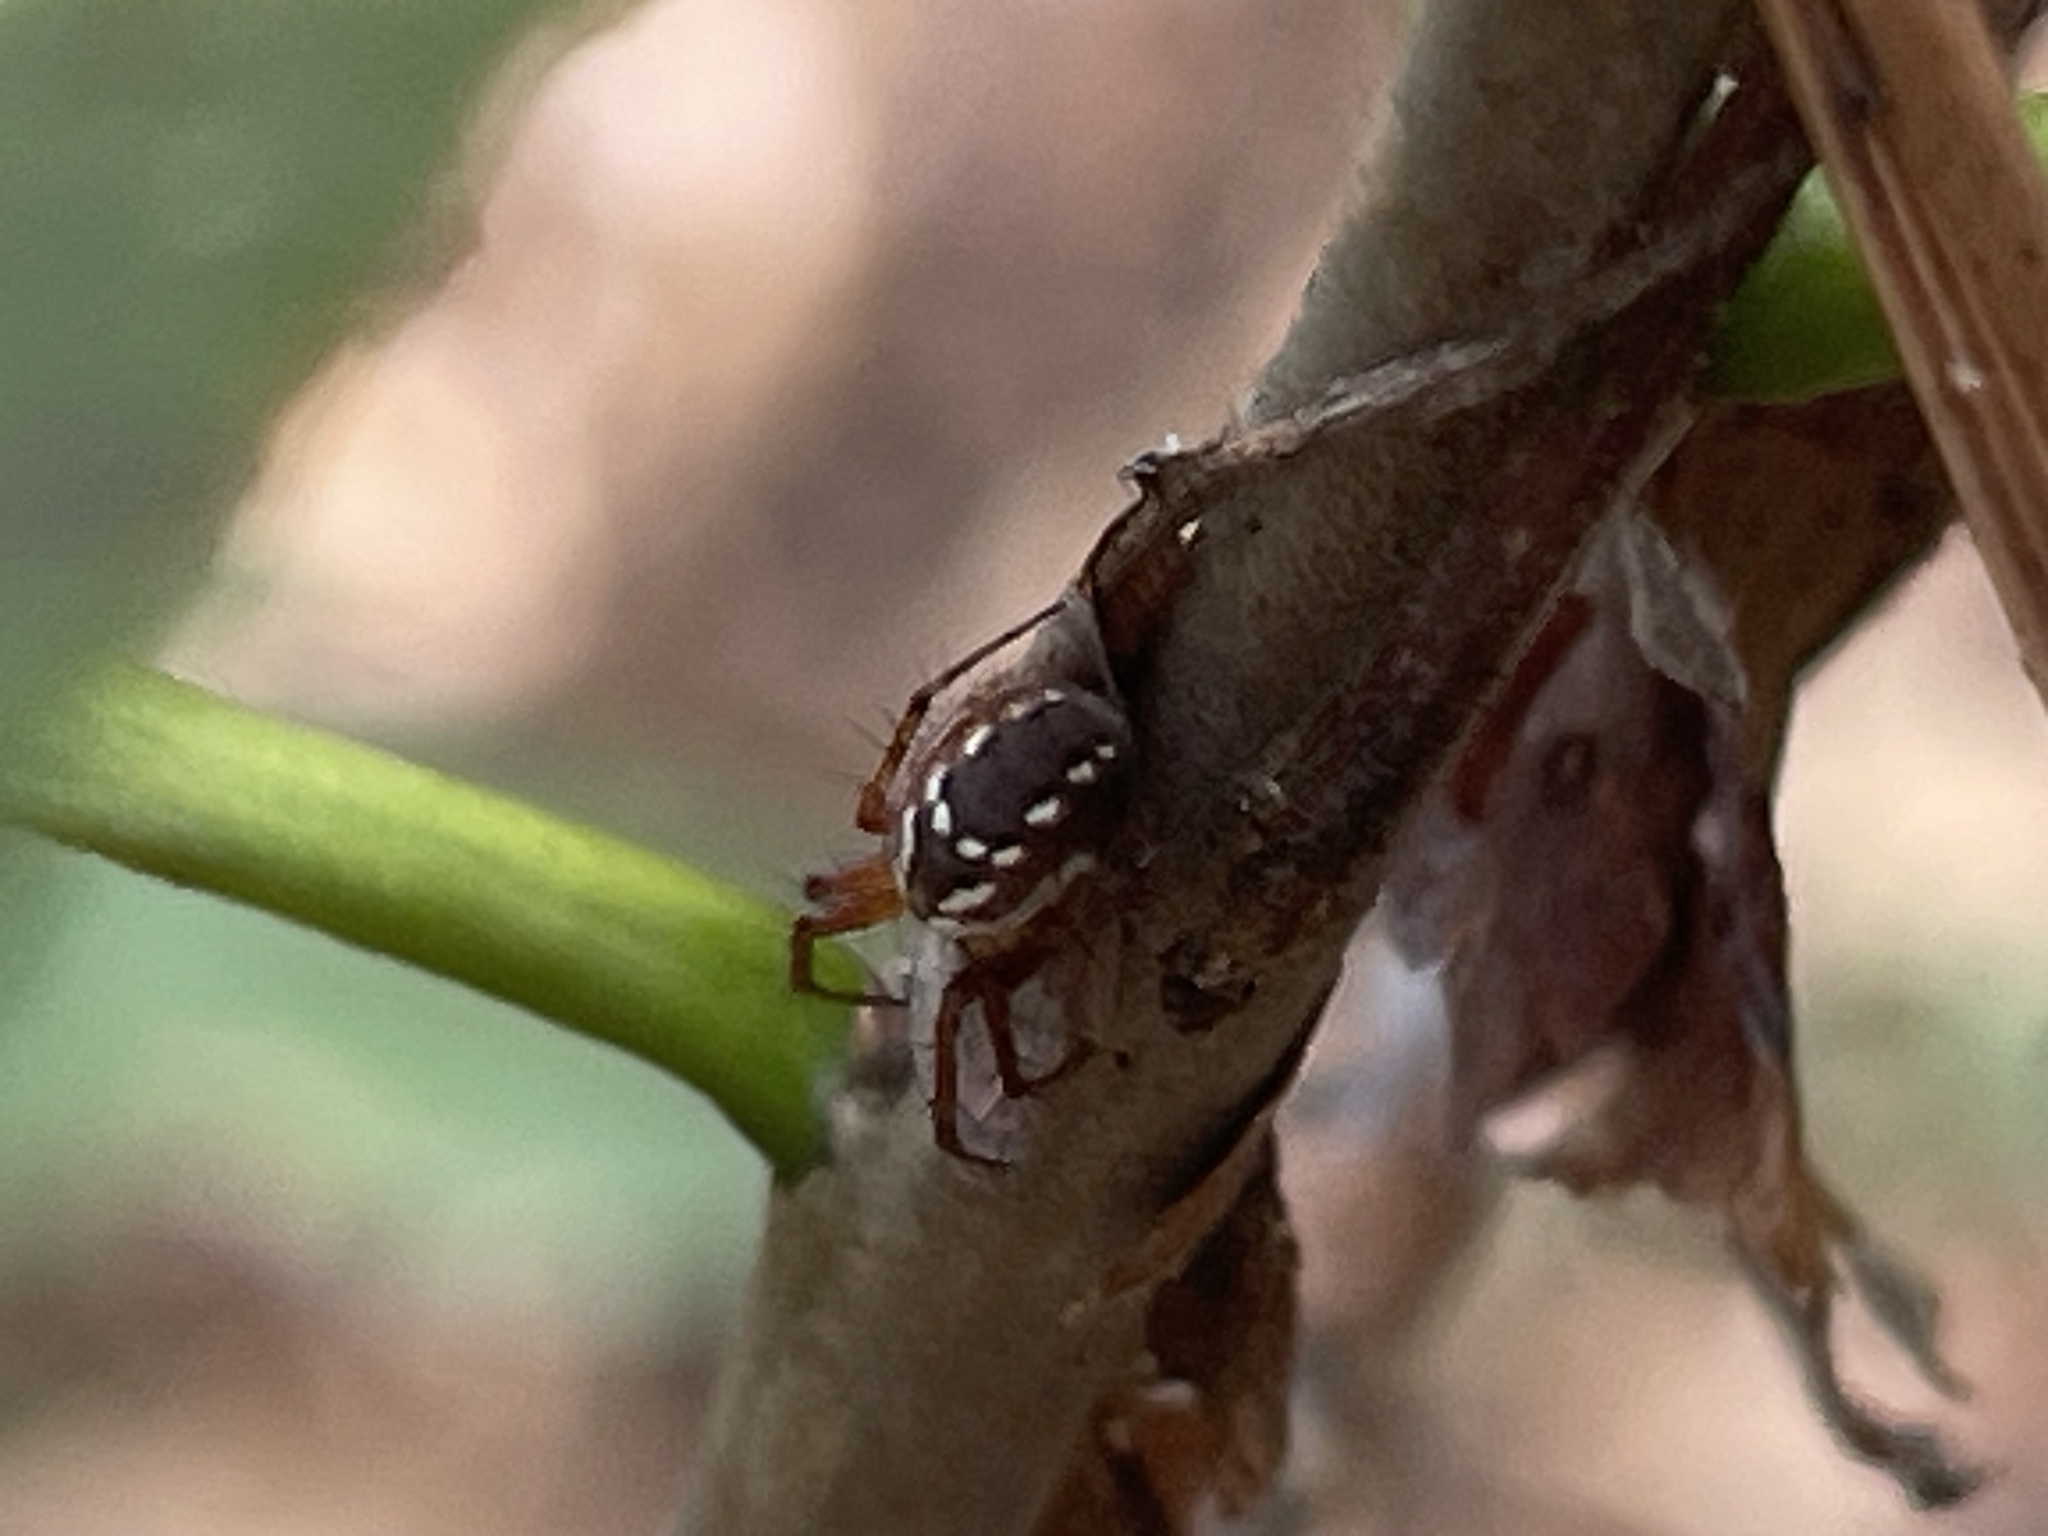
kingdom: Animalia
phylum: Arthropoda
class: Arachnida
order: Araneae
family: Araneidae
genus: Mangora
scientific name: Mangora placida
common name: Tuft-legged orbweaver
